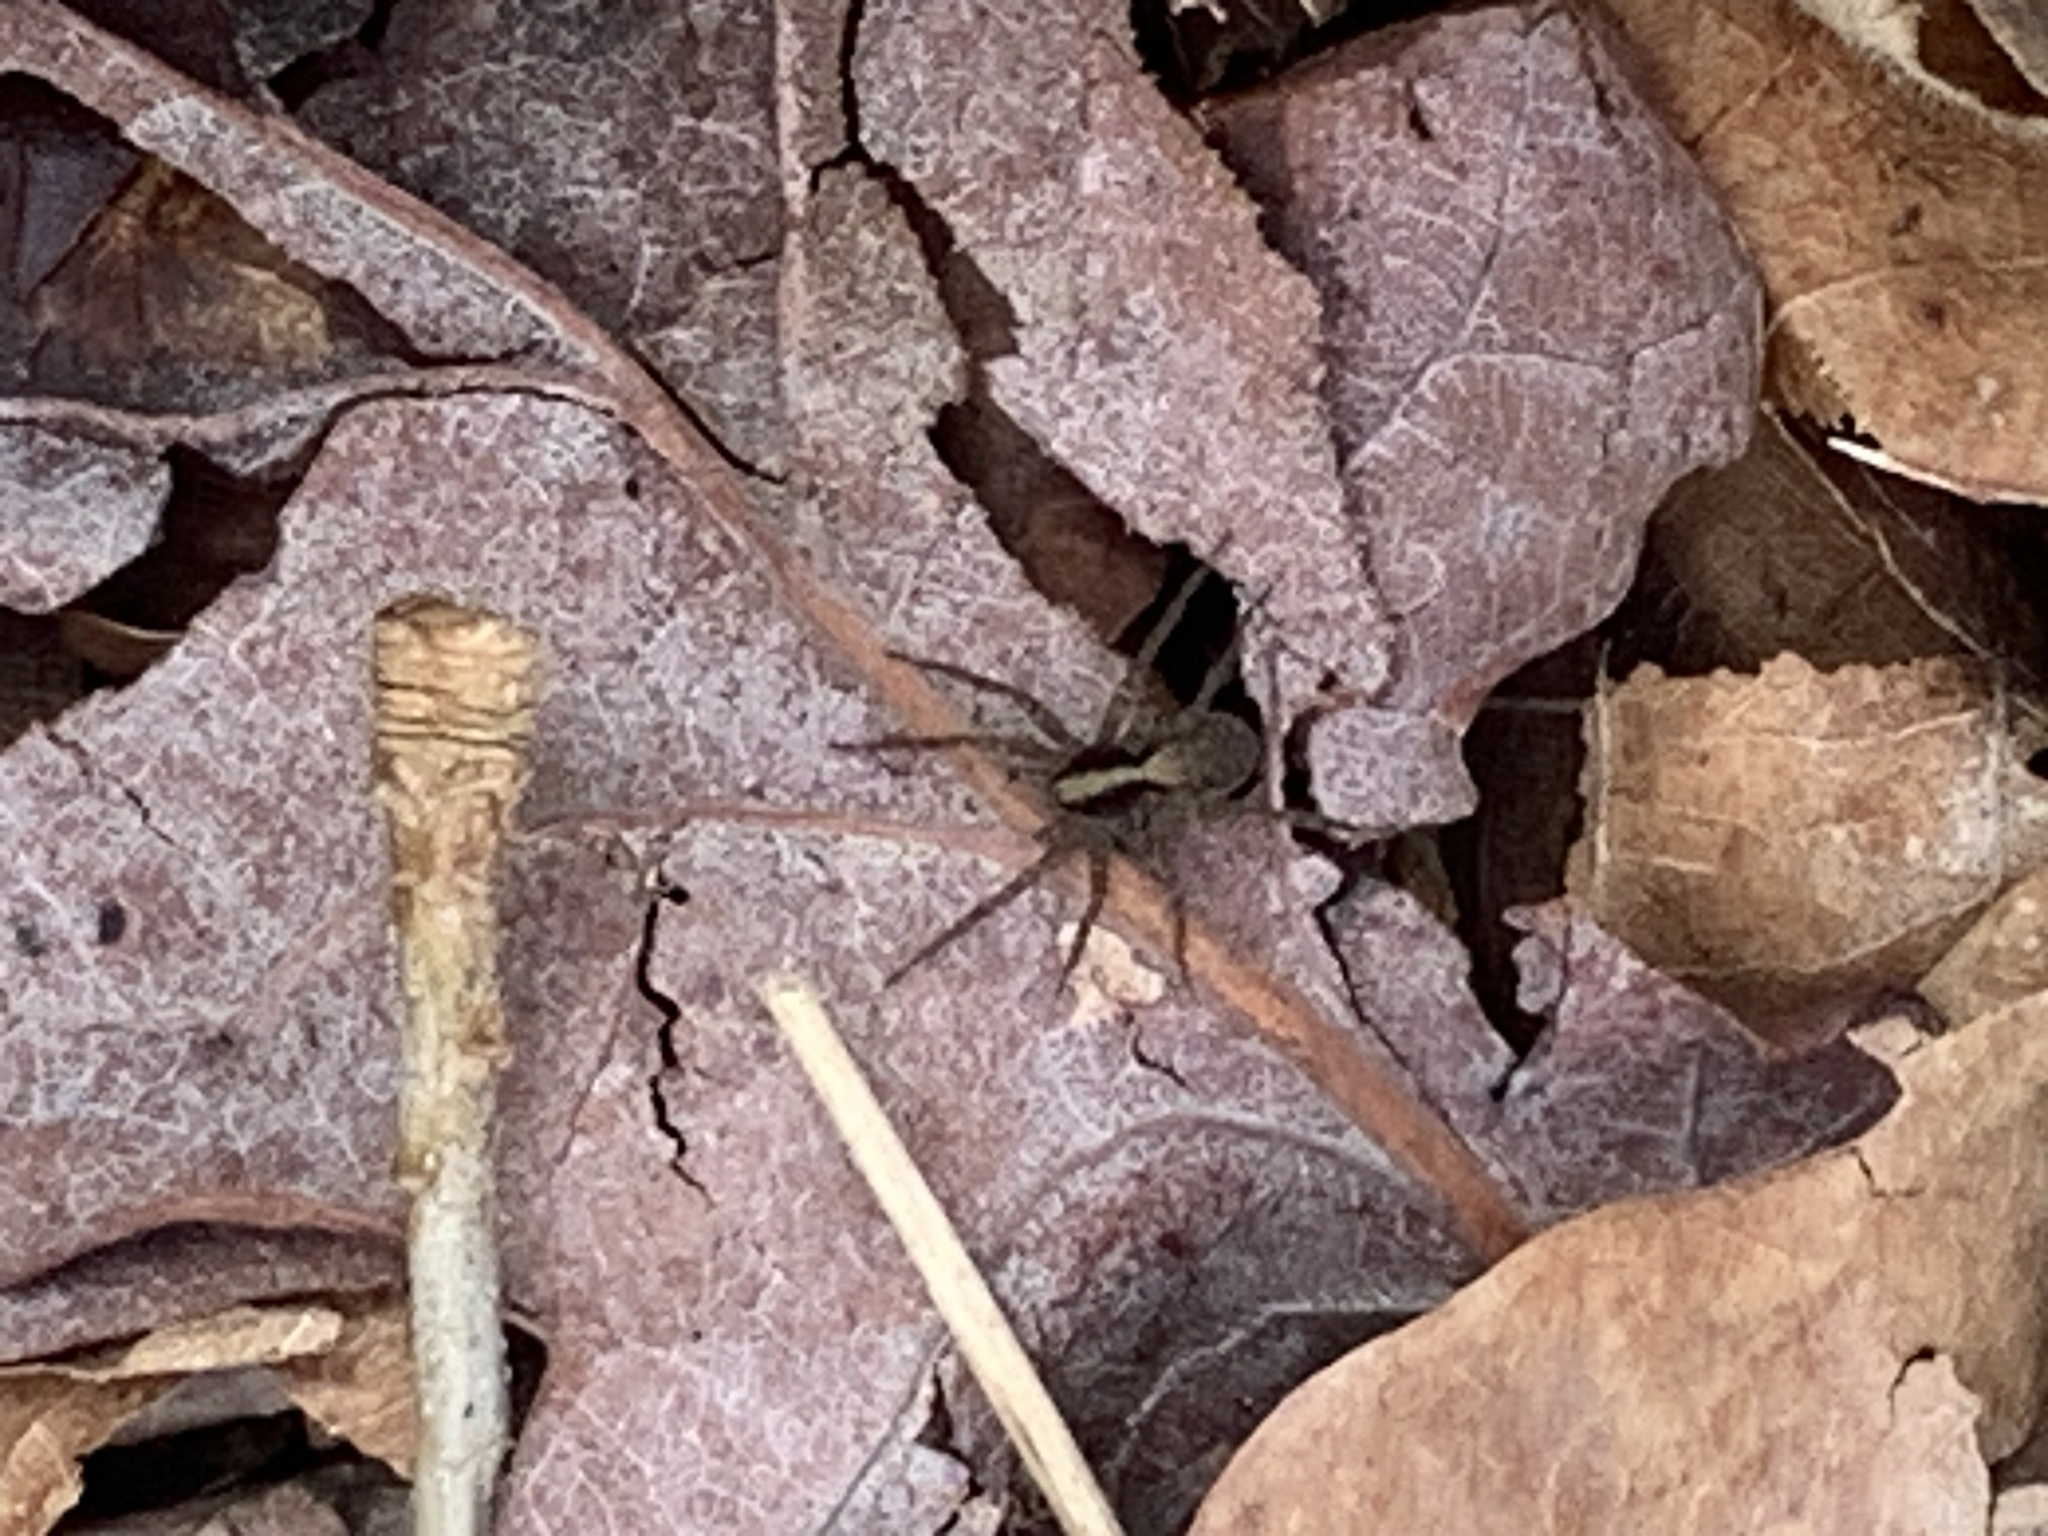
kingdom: Animalia
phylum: Arthropoda
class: Arachnida
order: Araneae
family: Lycosidae
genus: Pardosa
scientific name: Pardosa
